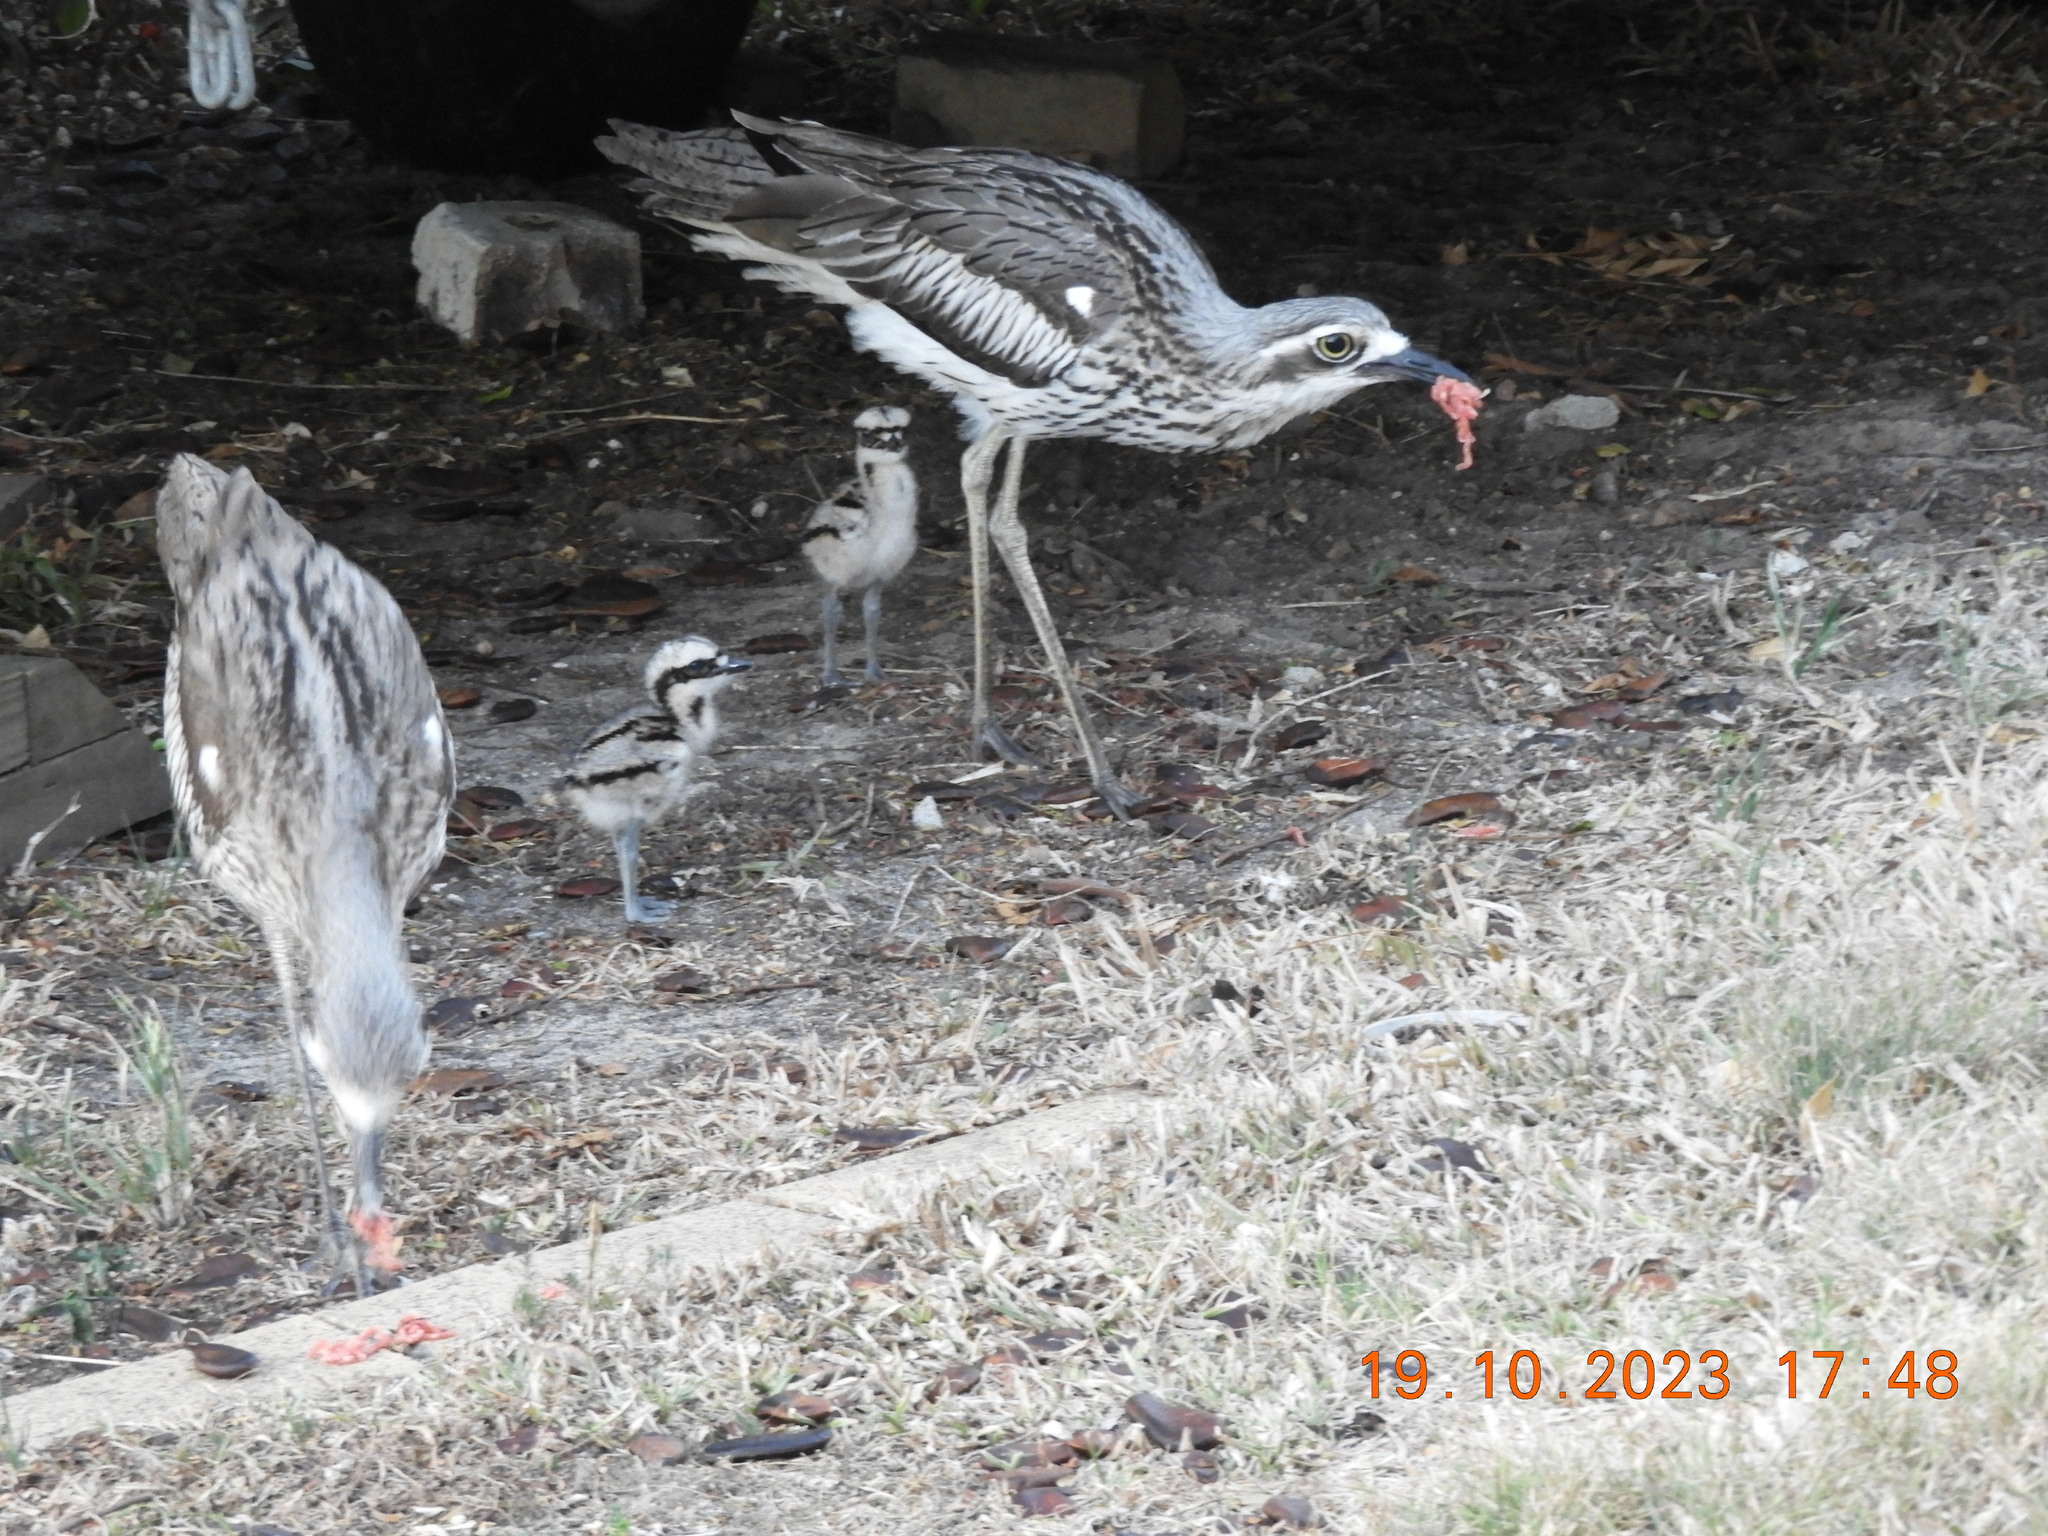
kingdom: Animalia
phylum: Chordata
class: Aves
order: Charadriiformes
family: Burhinidae
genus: Burhinus
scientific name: Burhinus grallarius
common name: Bush stone-curlew
